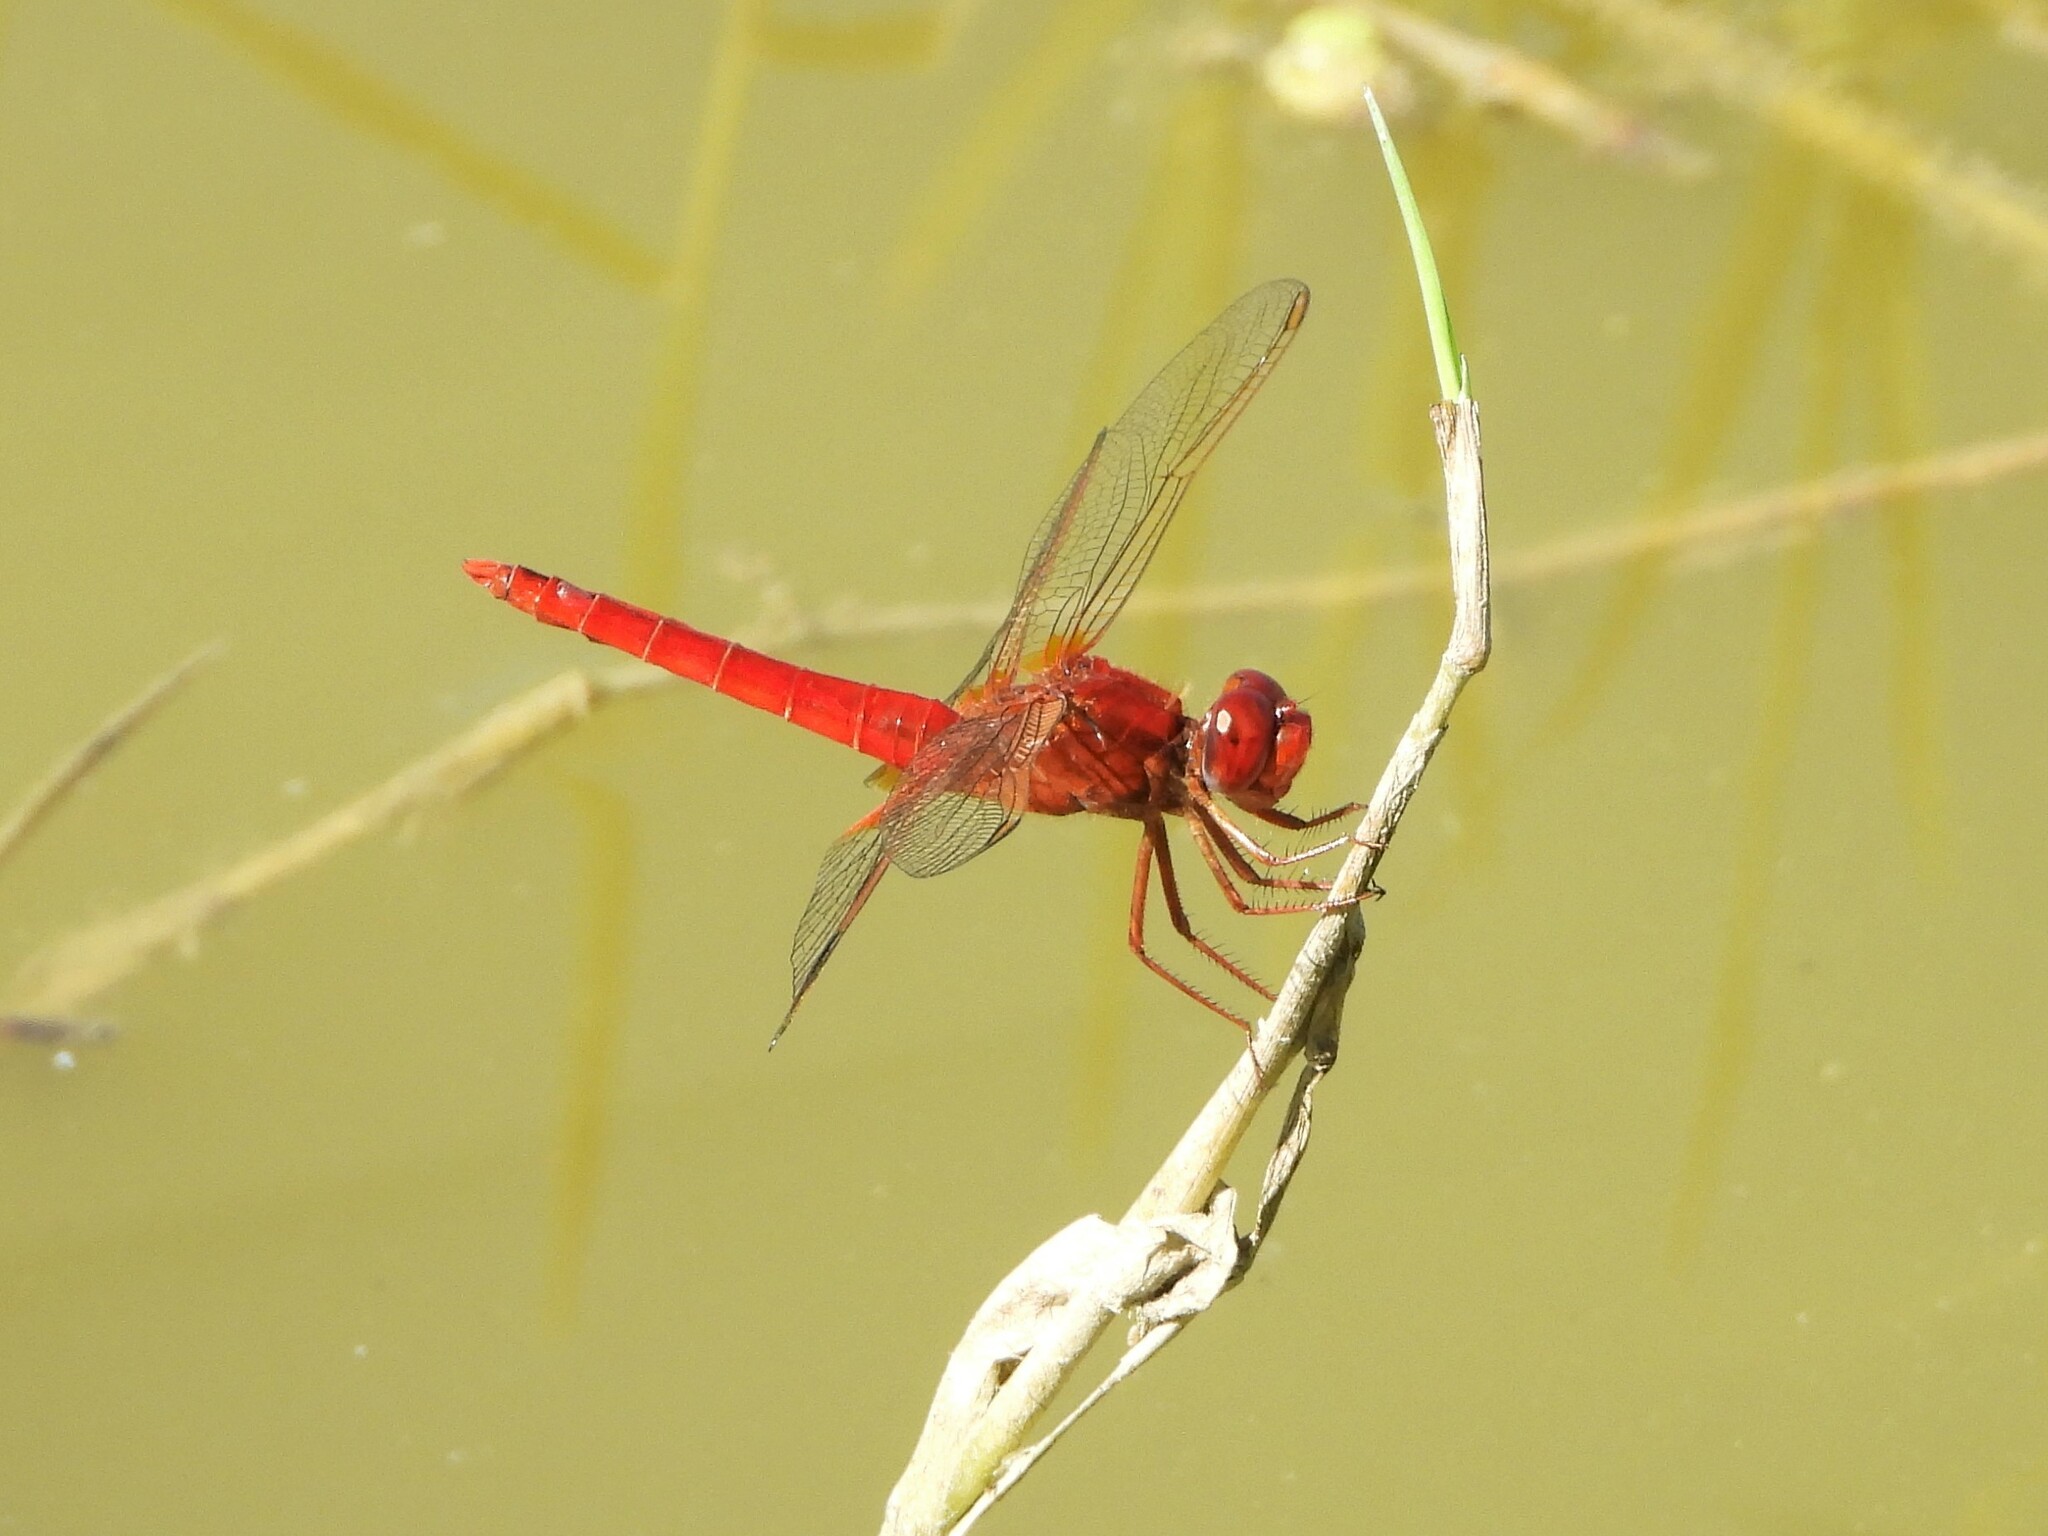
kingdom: Animalia
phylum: Arthropoda
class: Insecta
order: Odonata
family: Libellulidae
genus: Crocothemis
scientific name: Crocothemis erythraea
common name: Scarlet dragonfly
